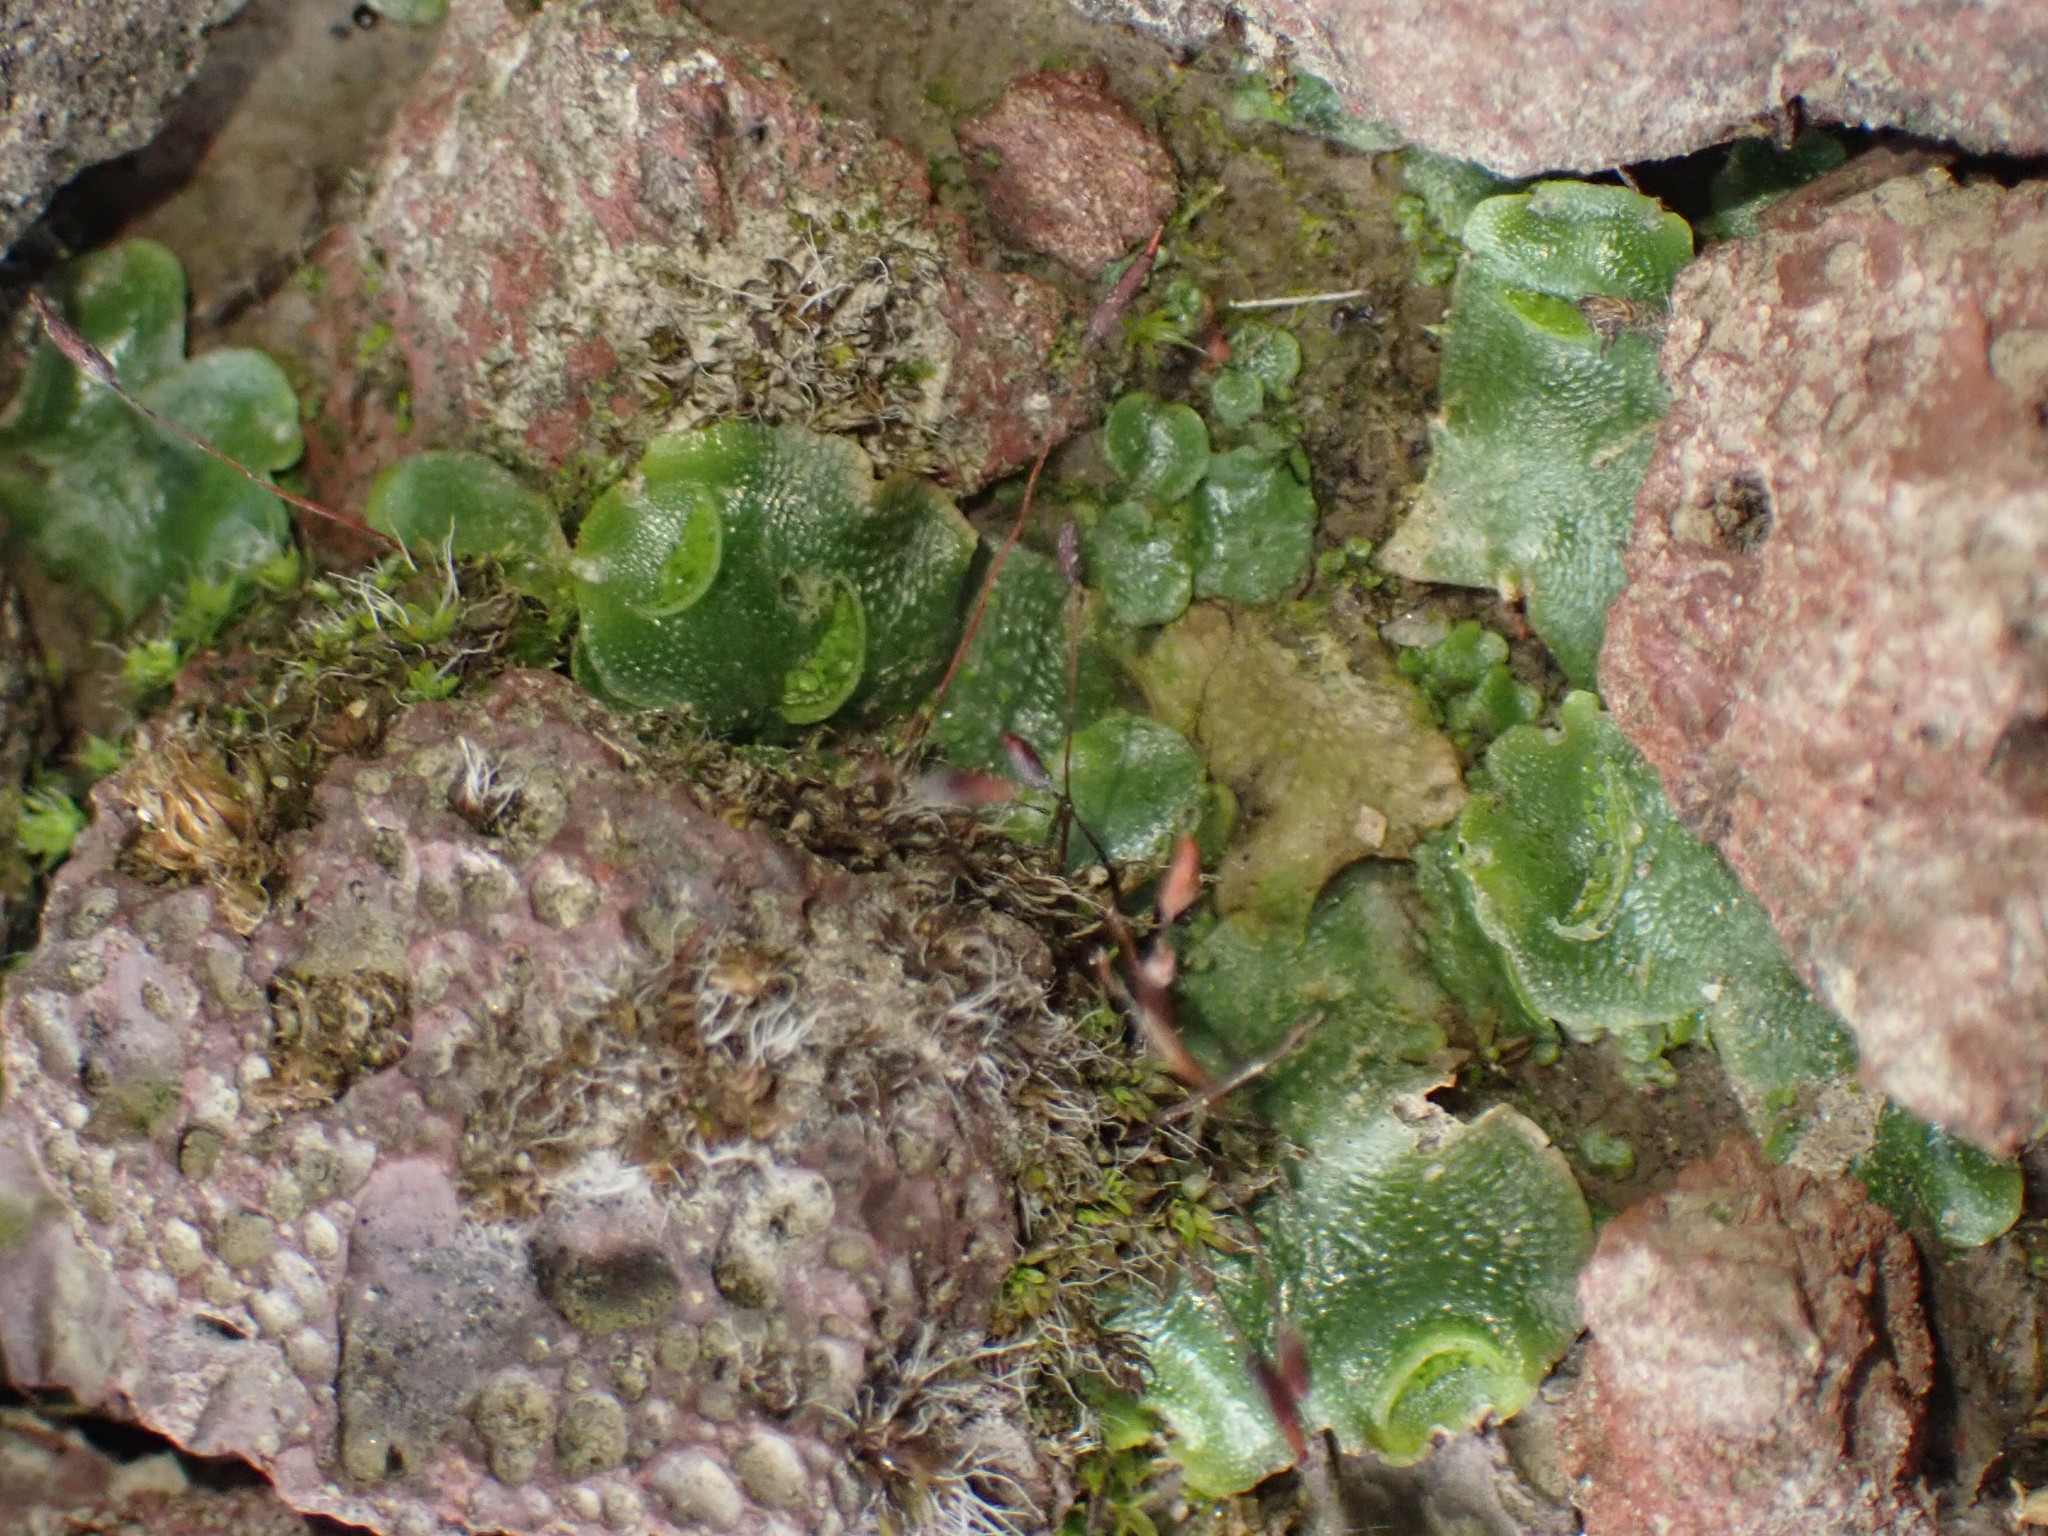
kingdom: Plantae
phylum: Marchantiophyta
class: Marchantiopsida
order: Lunulariales
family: Lunulariaceae
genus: Lunularia
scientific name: Lunularia cruciata
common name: Crescent-cup liverwort
